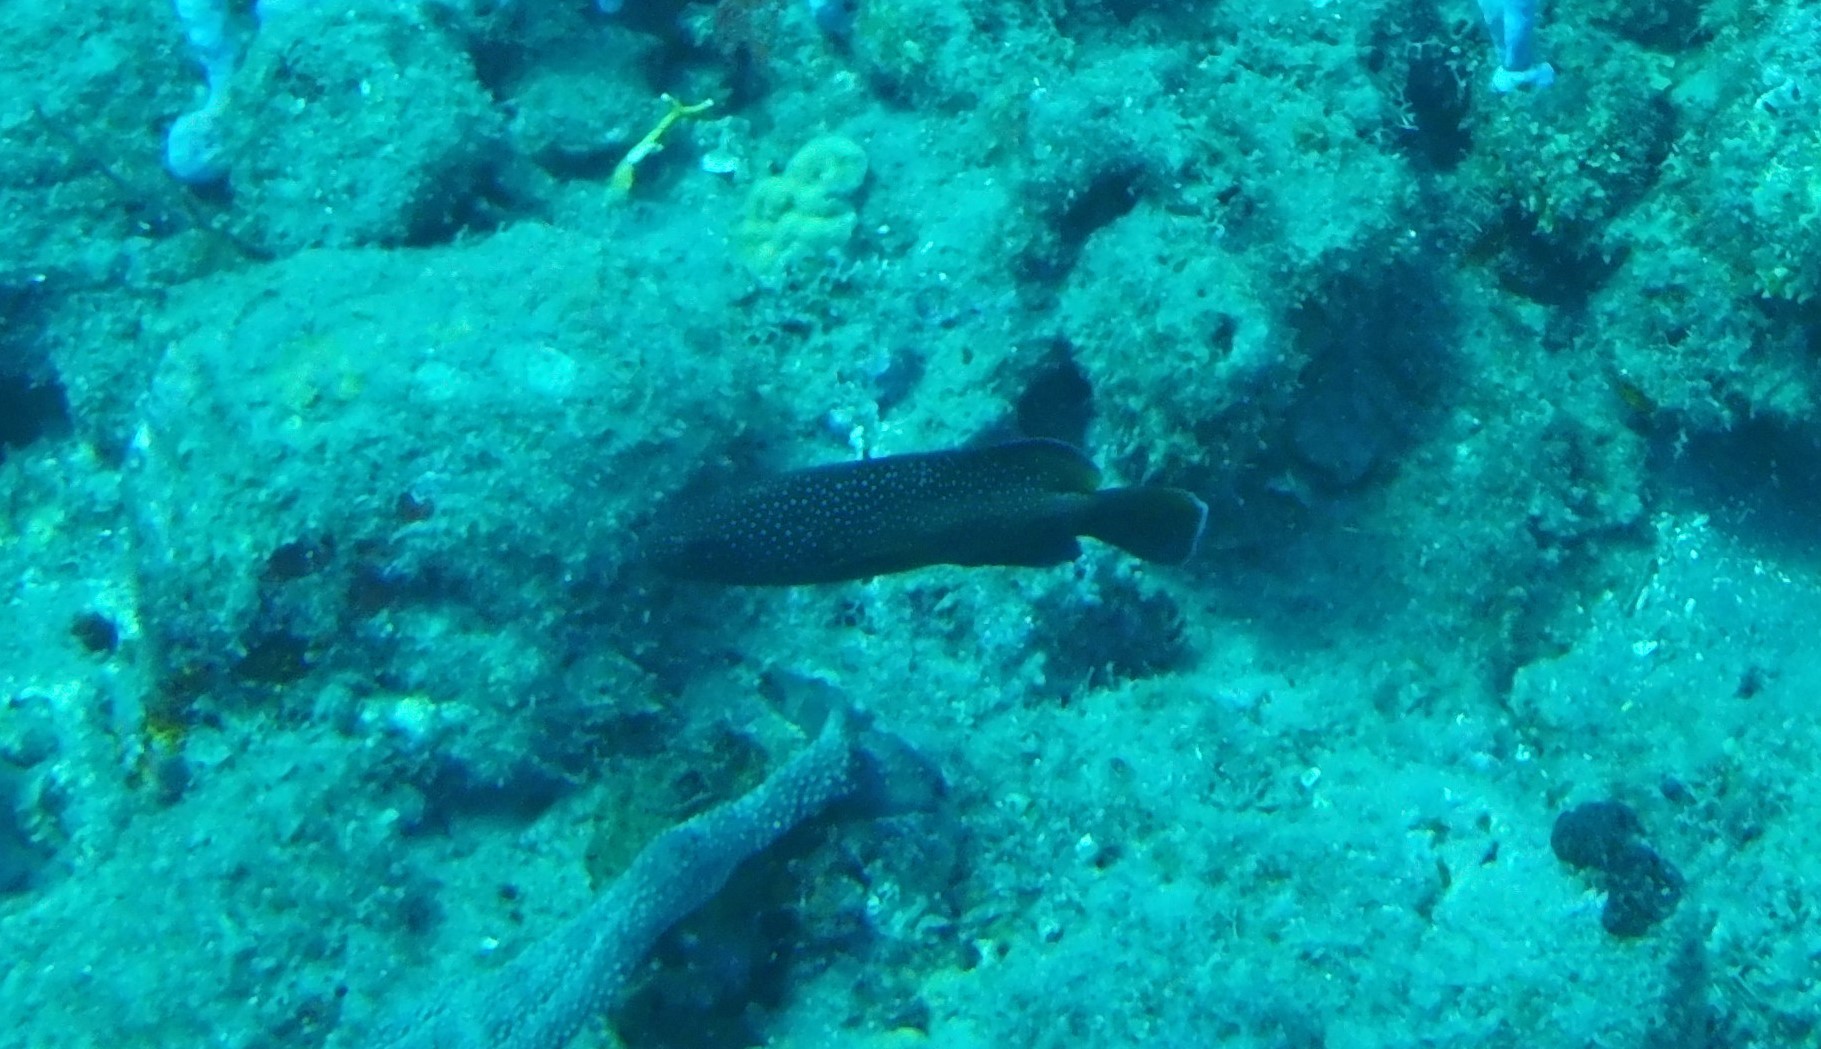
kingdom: Animalia
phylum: Chordata
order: Perciformes
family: Serranidae
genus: Cephalopholis
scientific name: Cephalopholis fulva
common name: Butterfish
